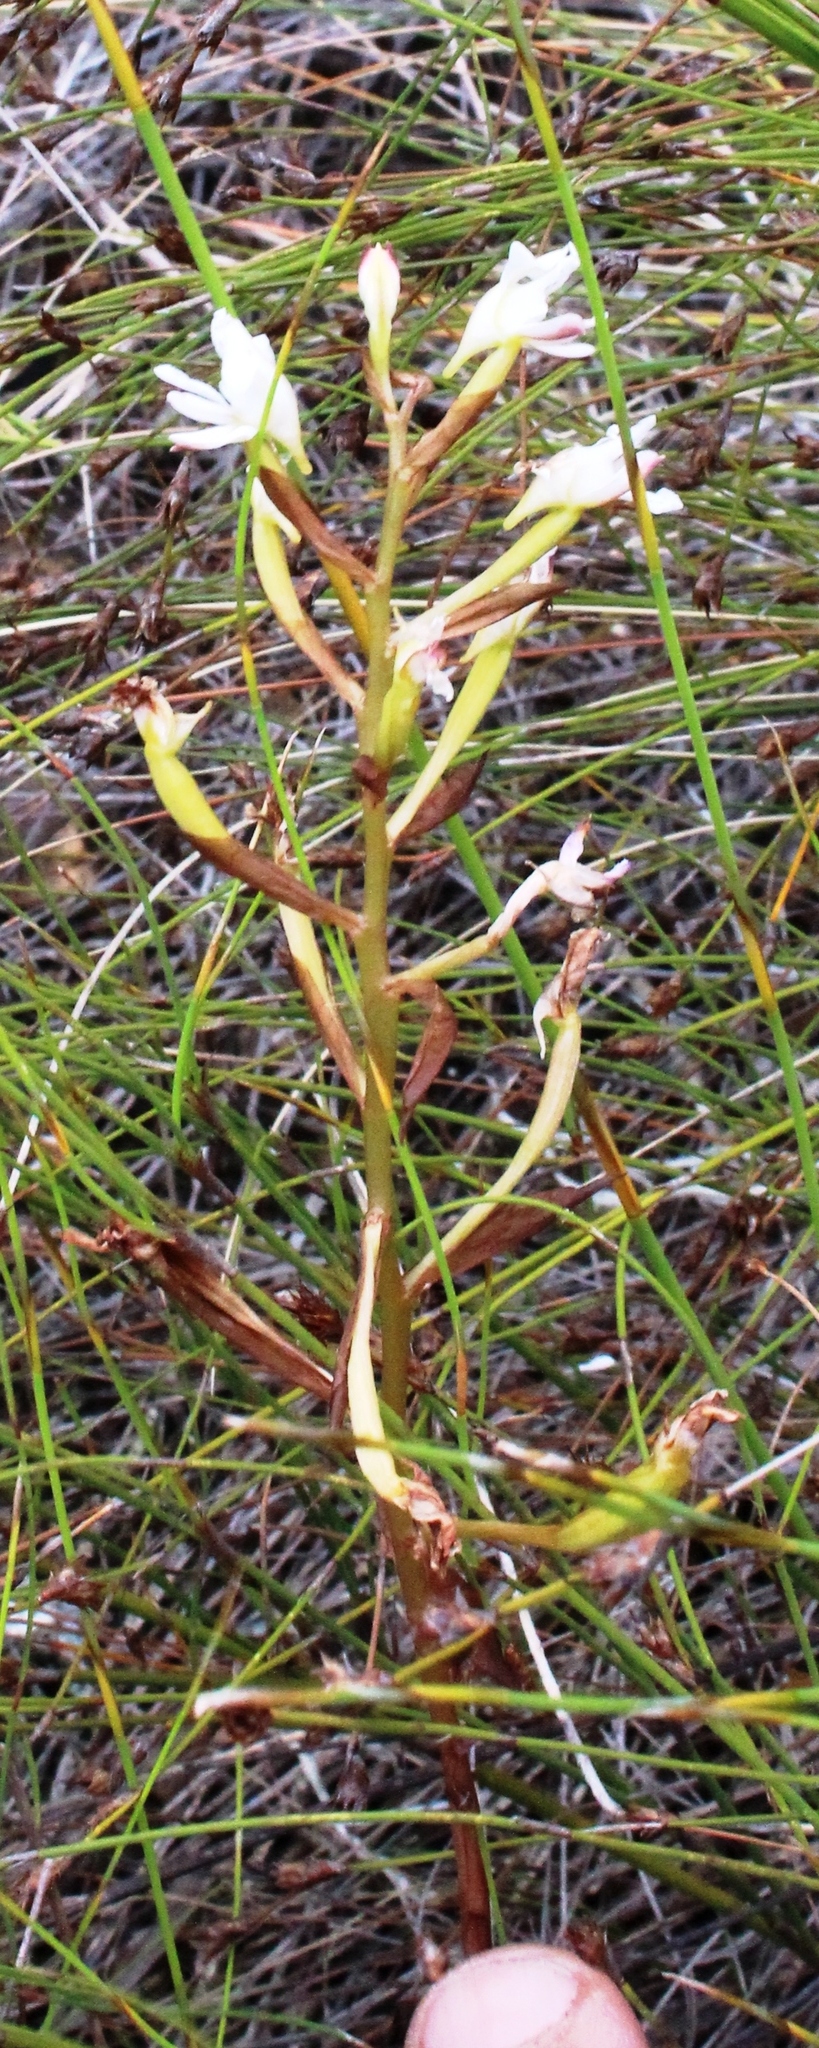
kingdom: Plantae
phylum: Tracheophyta
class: Liliopsida
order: Asparagales
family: Orchidaceae
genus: Disa
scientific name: Disa sagittalis
